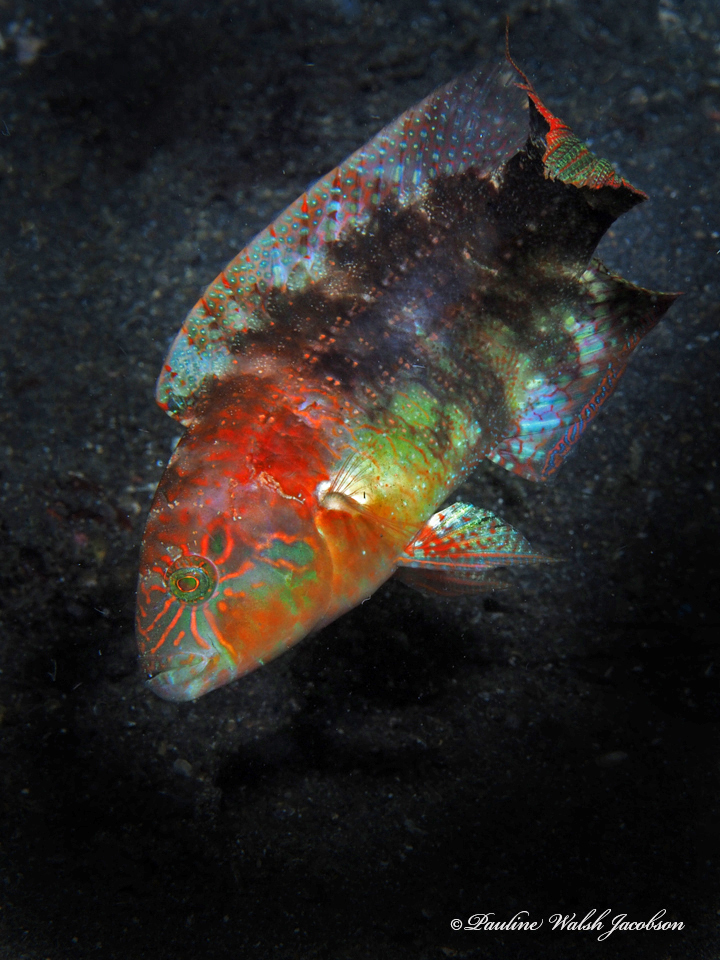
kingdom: Animalia
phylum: Chordata
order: Perciformes
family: Labridae
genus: Oxycheilinus
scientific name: Oxycheilinus bimaculatus
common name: Comettailed wrasse
